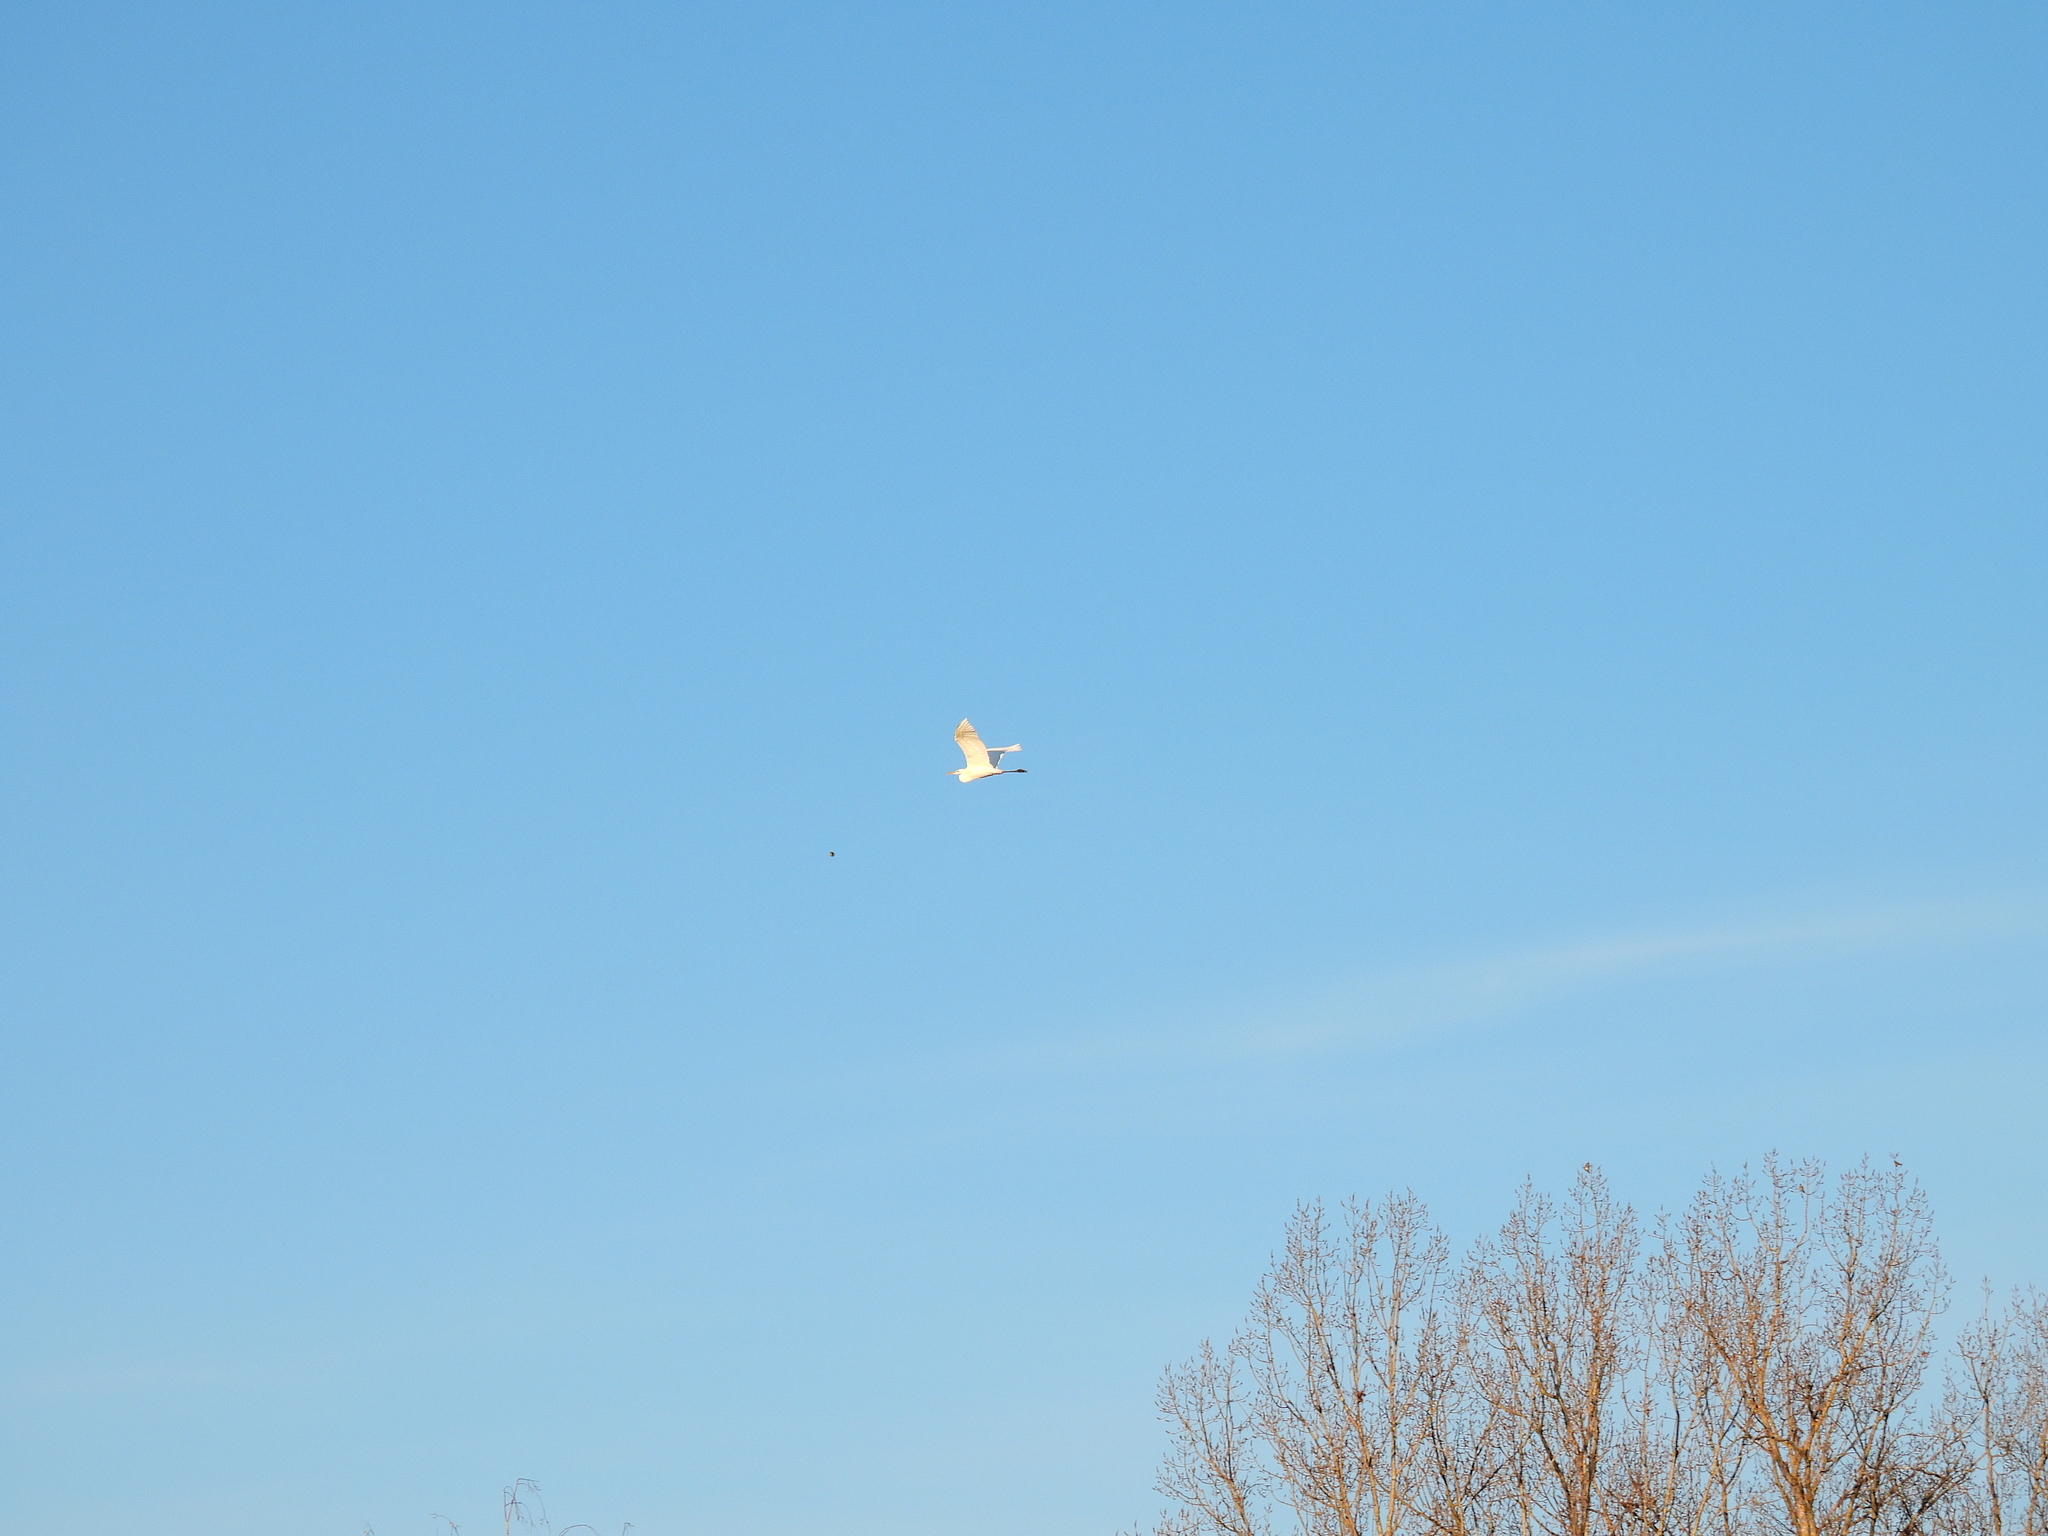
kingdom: Animalia
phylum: Chordata
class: Aves
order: Pelecaniformes
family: Ardeidae
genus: Ardea
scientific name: Ardea alba
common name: Great egret
